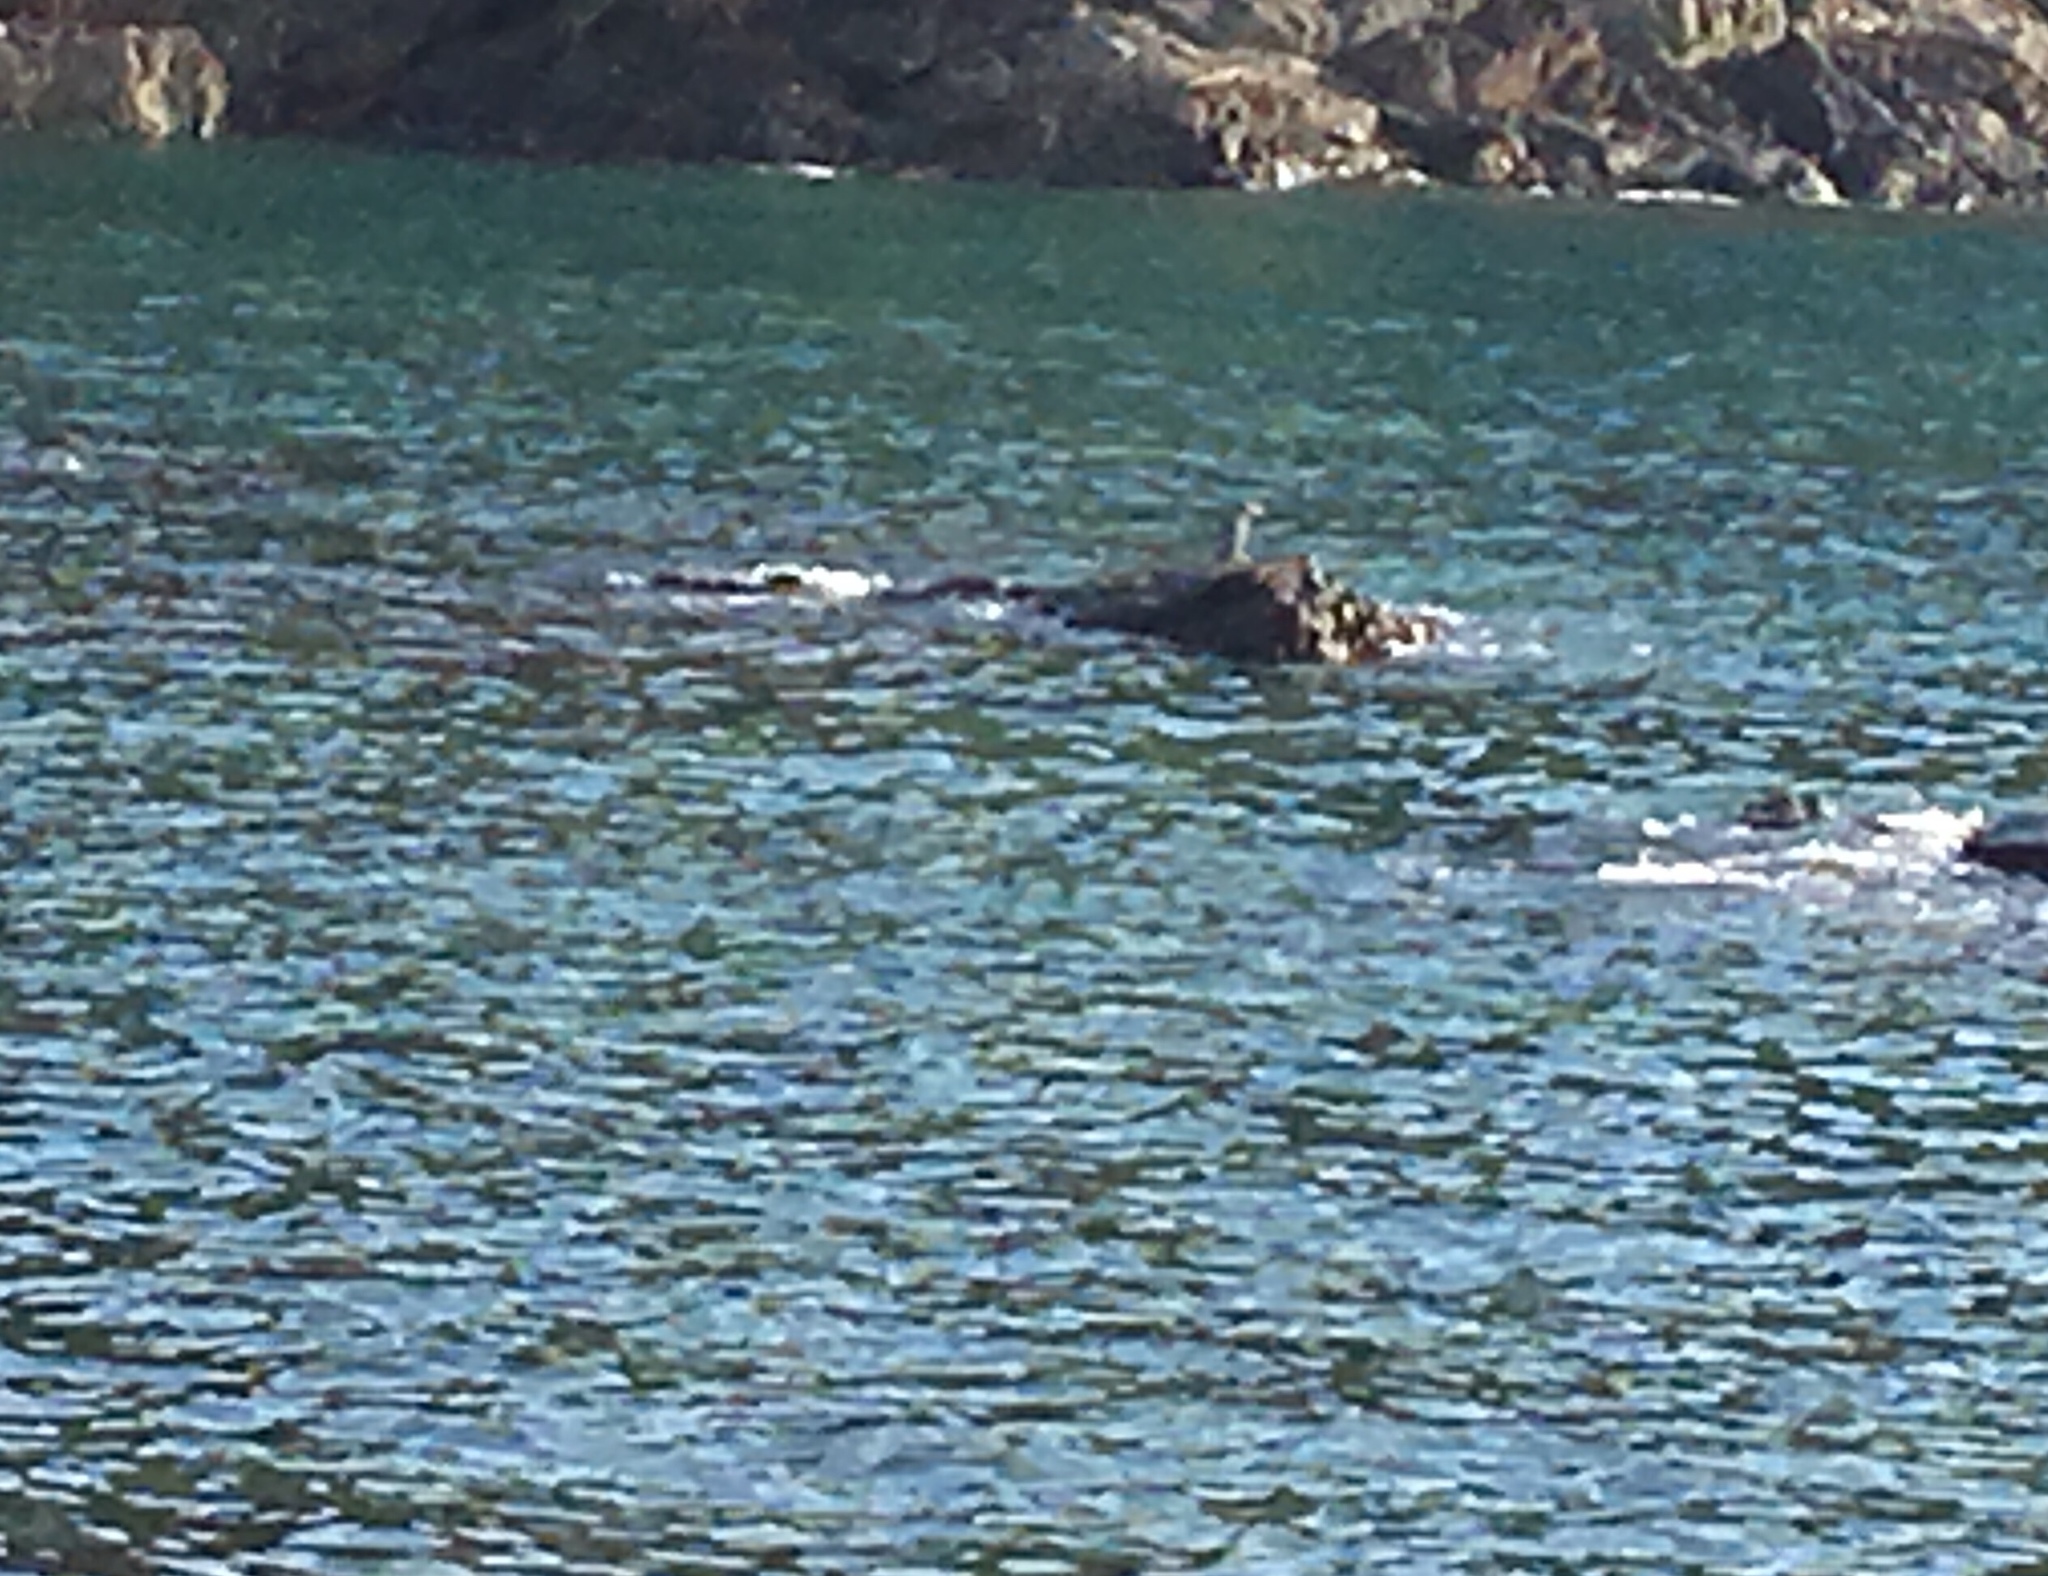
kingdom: Animalia
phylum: Chordata
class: Aves
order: Pelecaniformes
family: Ardeidae
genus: Egretta
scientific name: Egretta sacra
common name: Pacific reef heron
